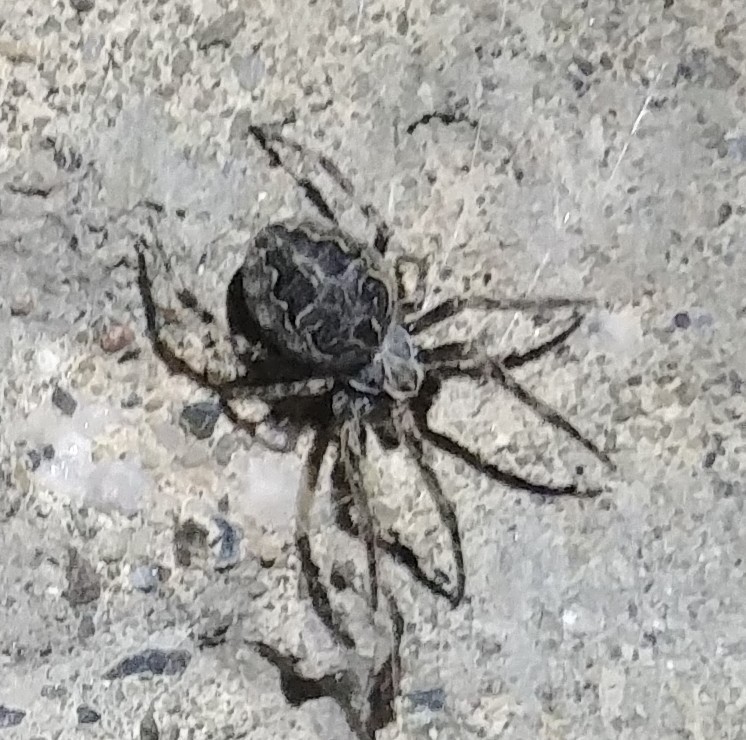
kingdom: Animalia
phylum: Arthropoda
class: Arachnida
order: Araneae
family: Araneidae
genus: Larinioides
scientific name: Larinioides sclopetarius
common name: Bridge orbweaver
